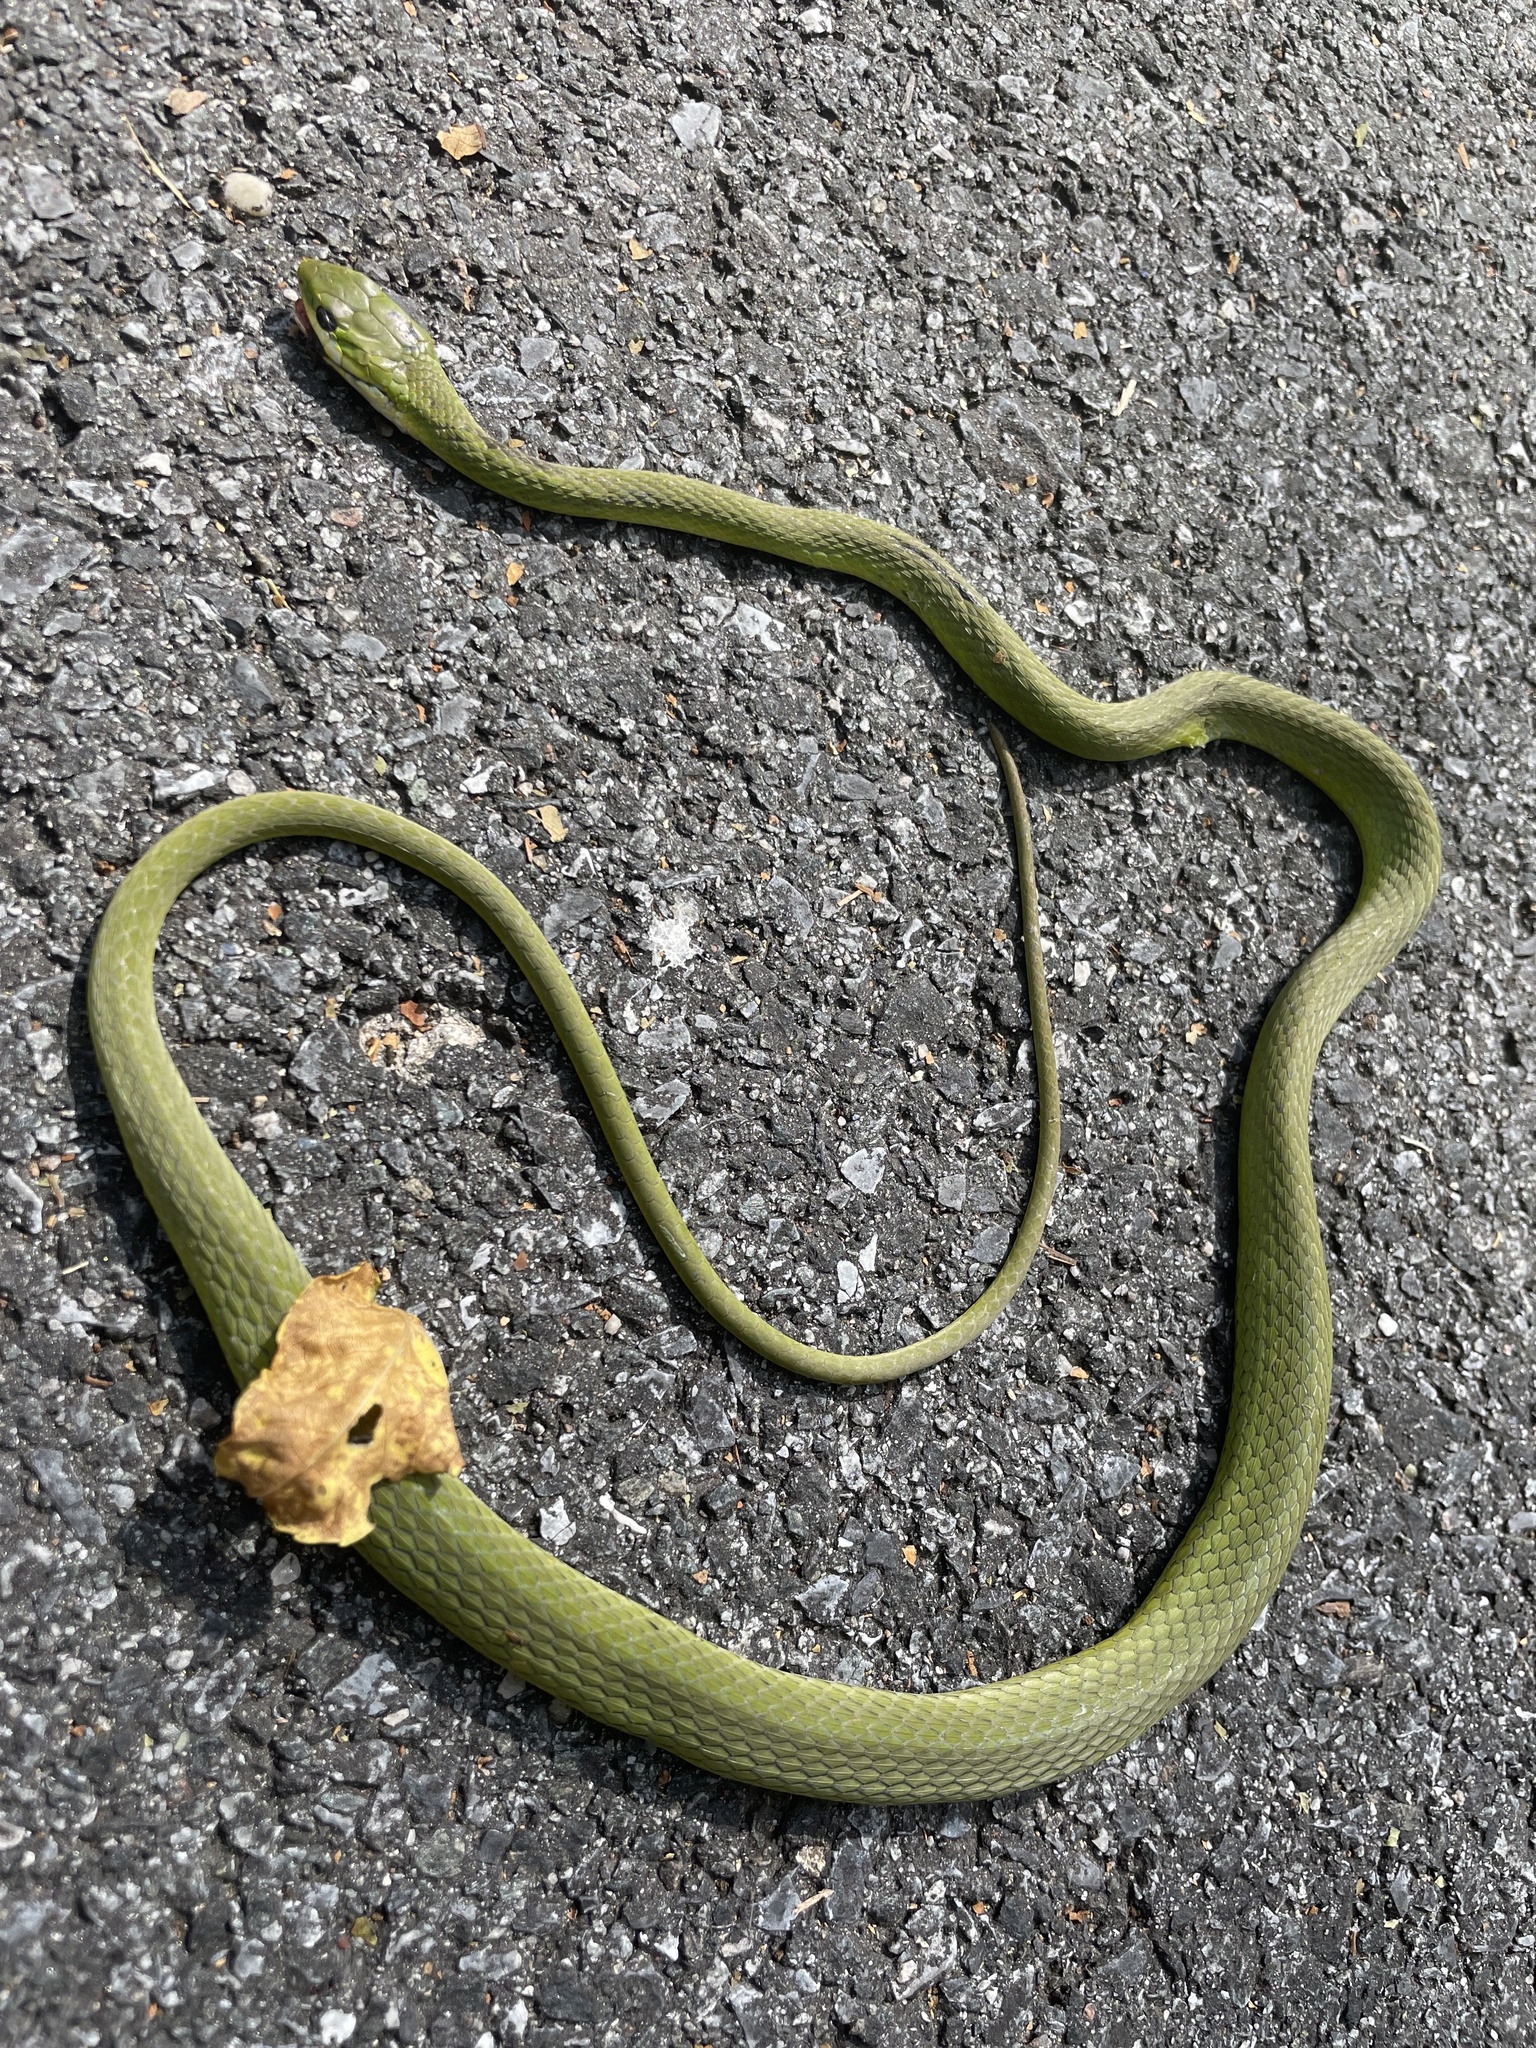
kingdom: Animalia
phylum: Chordata
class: Squamata
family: Colubridae
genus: Opheodrys
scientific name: Opheodrys aestivus
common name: Rough greensnake
